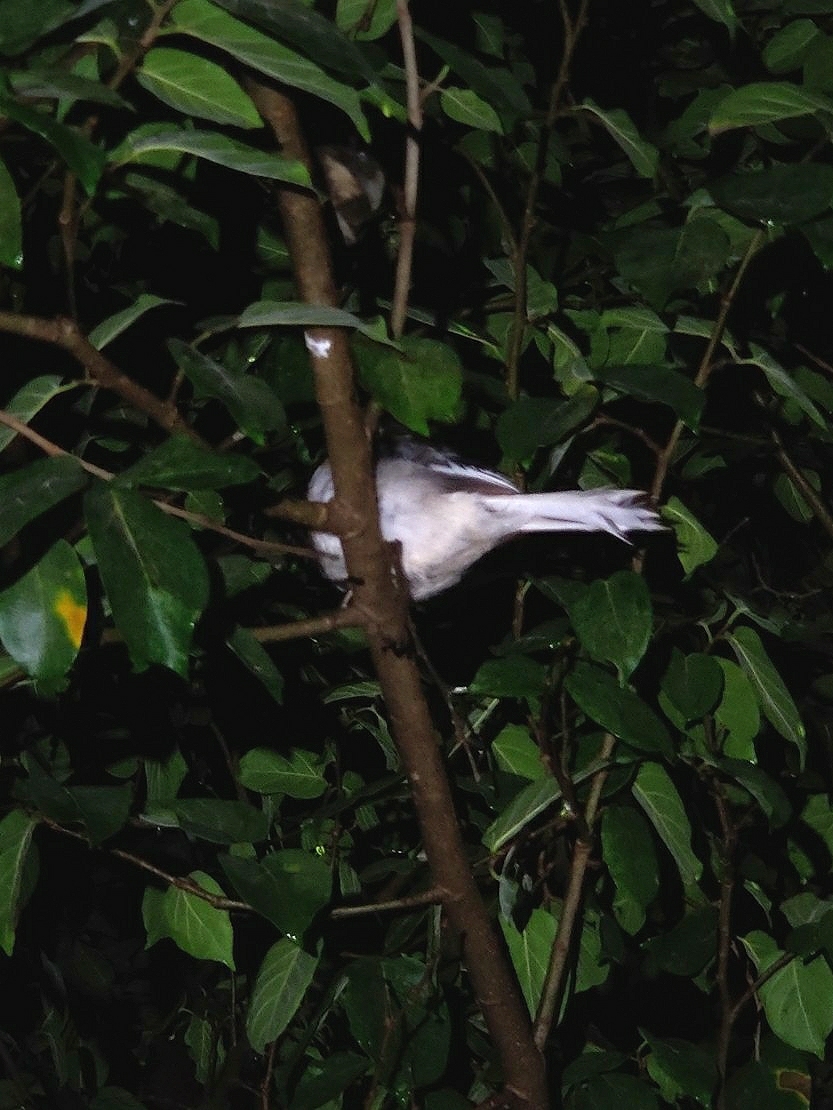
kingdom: Animalia
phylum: Chordata
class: Aves
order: Passeriformes
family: Muscicapidae
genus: Copsychus
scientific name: Copsychus saularis
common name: Oriental magpie-robin
